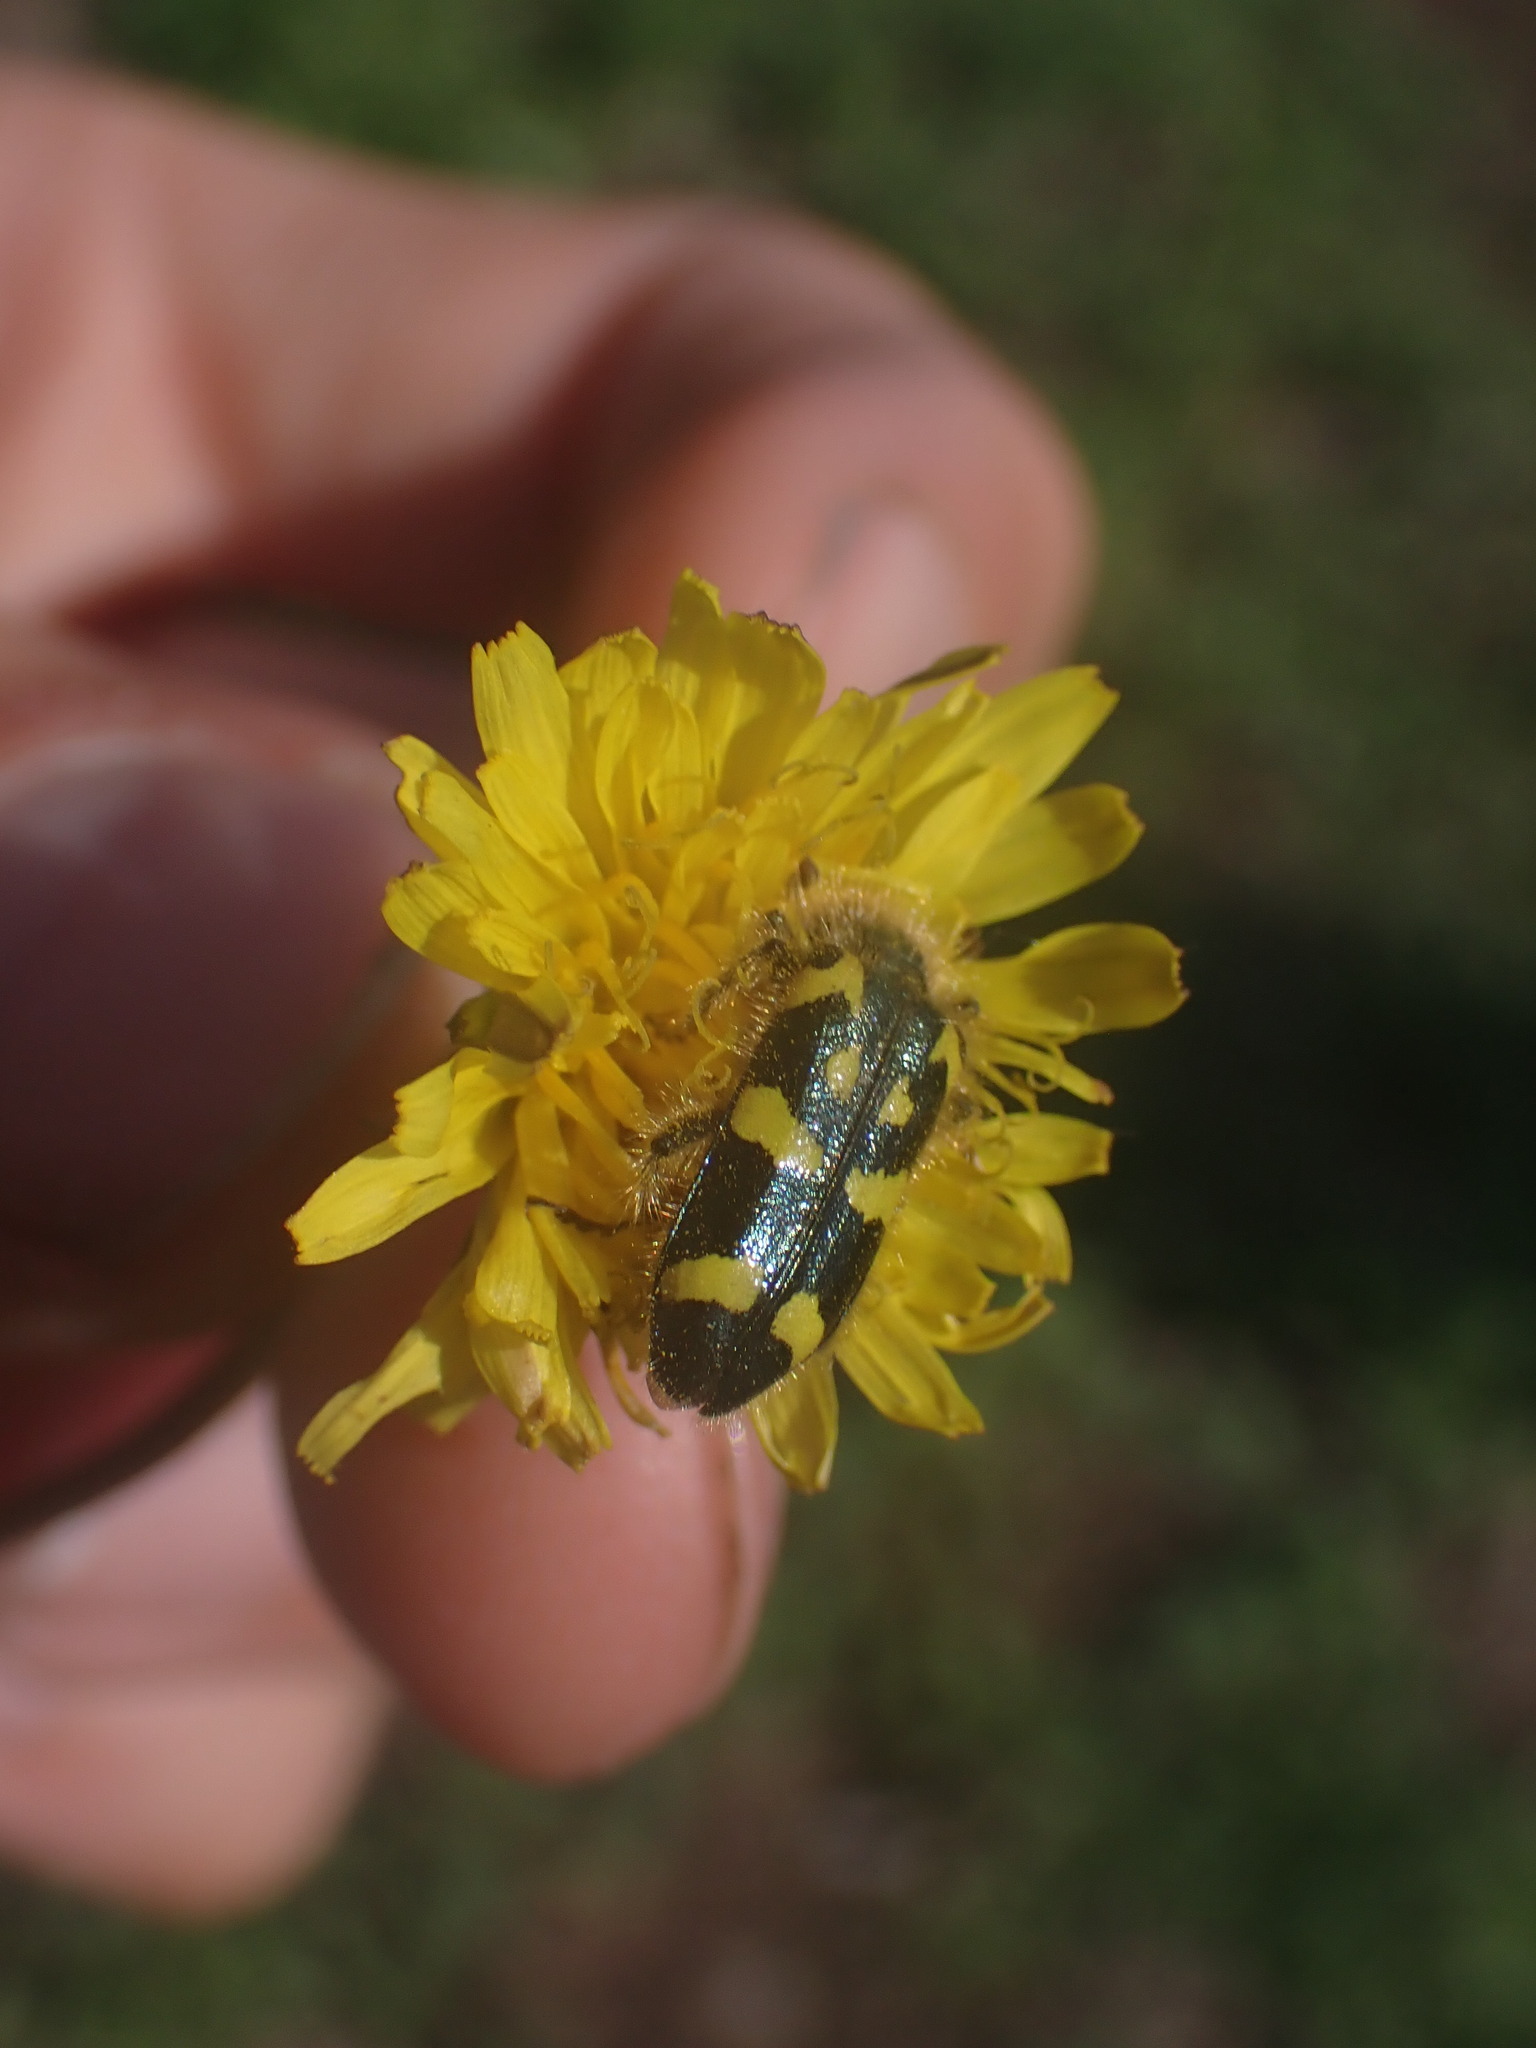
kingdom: Animalia
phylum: Arthropoda
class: Insecta
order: Coleoptera
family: Cleridae
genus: Trichodes
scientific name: Trichodes ornatus
